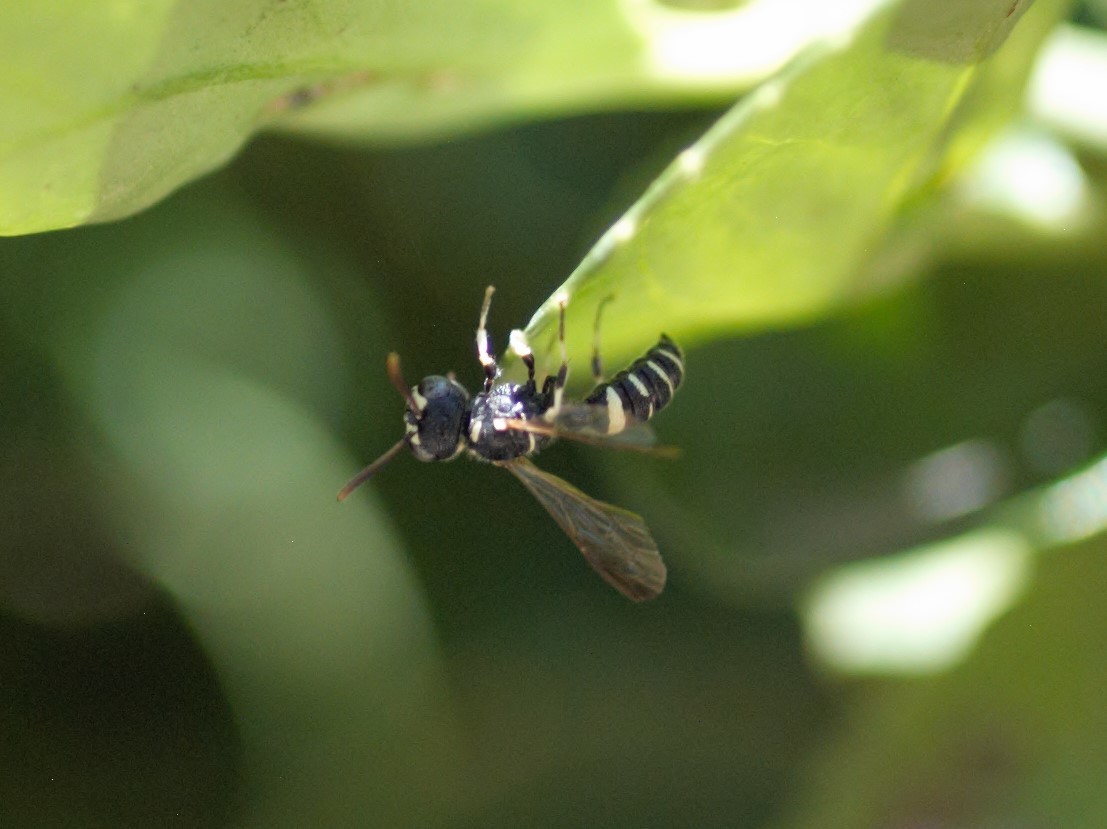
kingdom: Animalia
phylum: Arthropoda
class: Insecta
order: Hymenoptera
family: Crabronidae
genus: Cerceris
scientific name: Cerceris convergens
